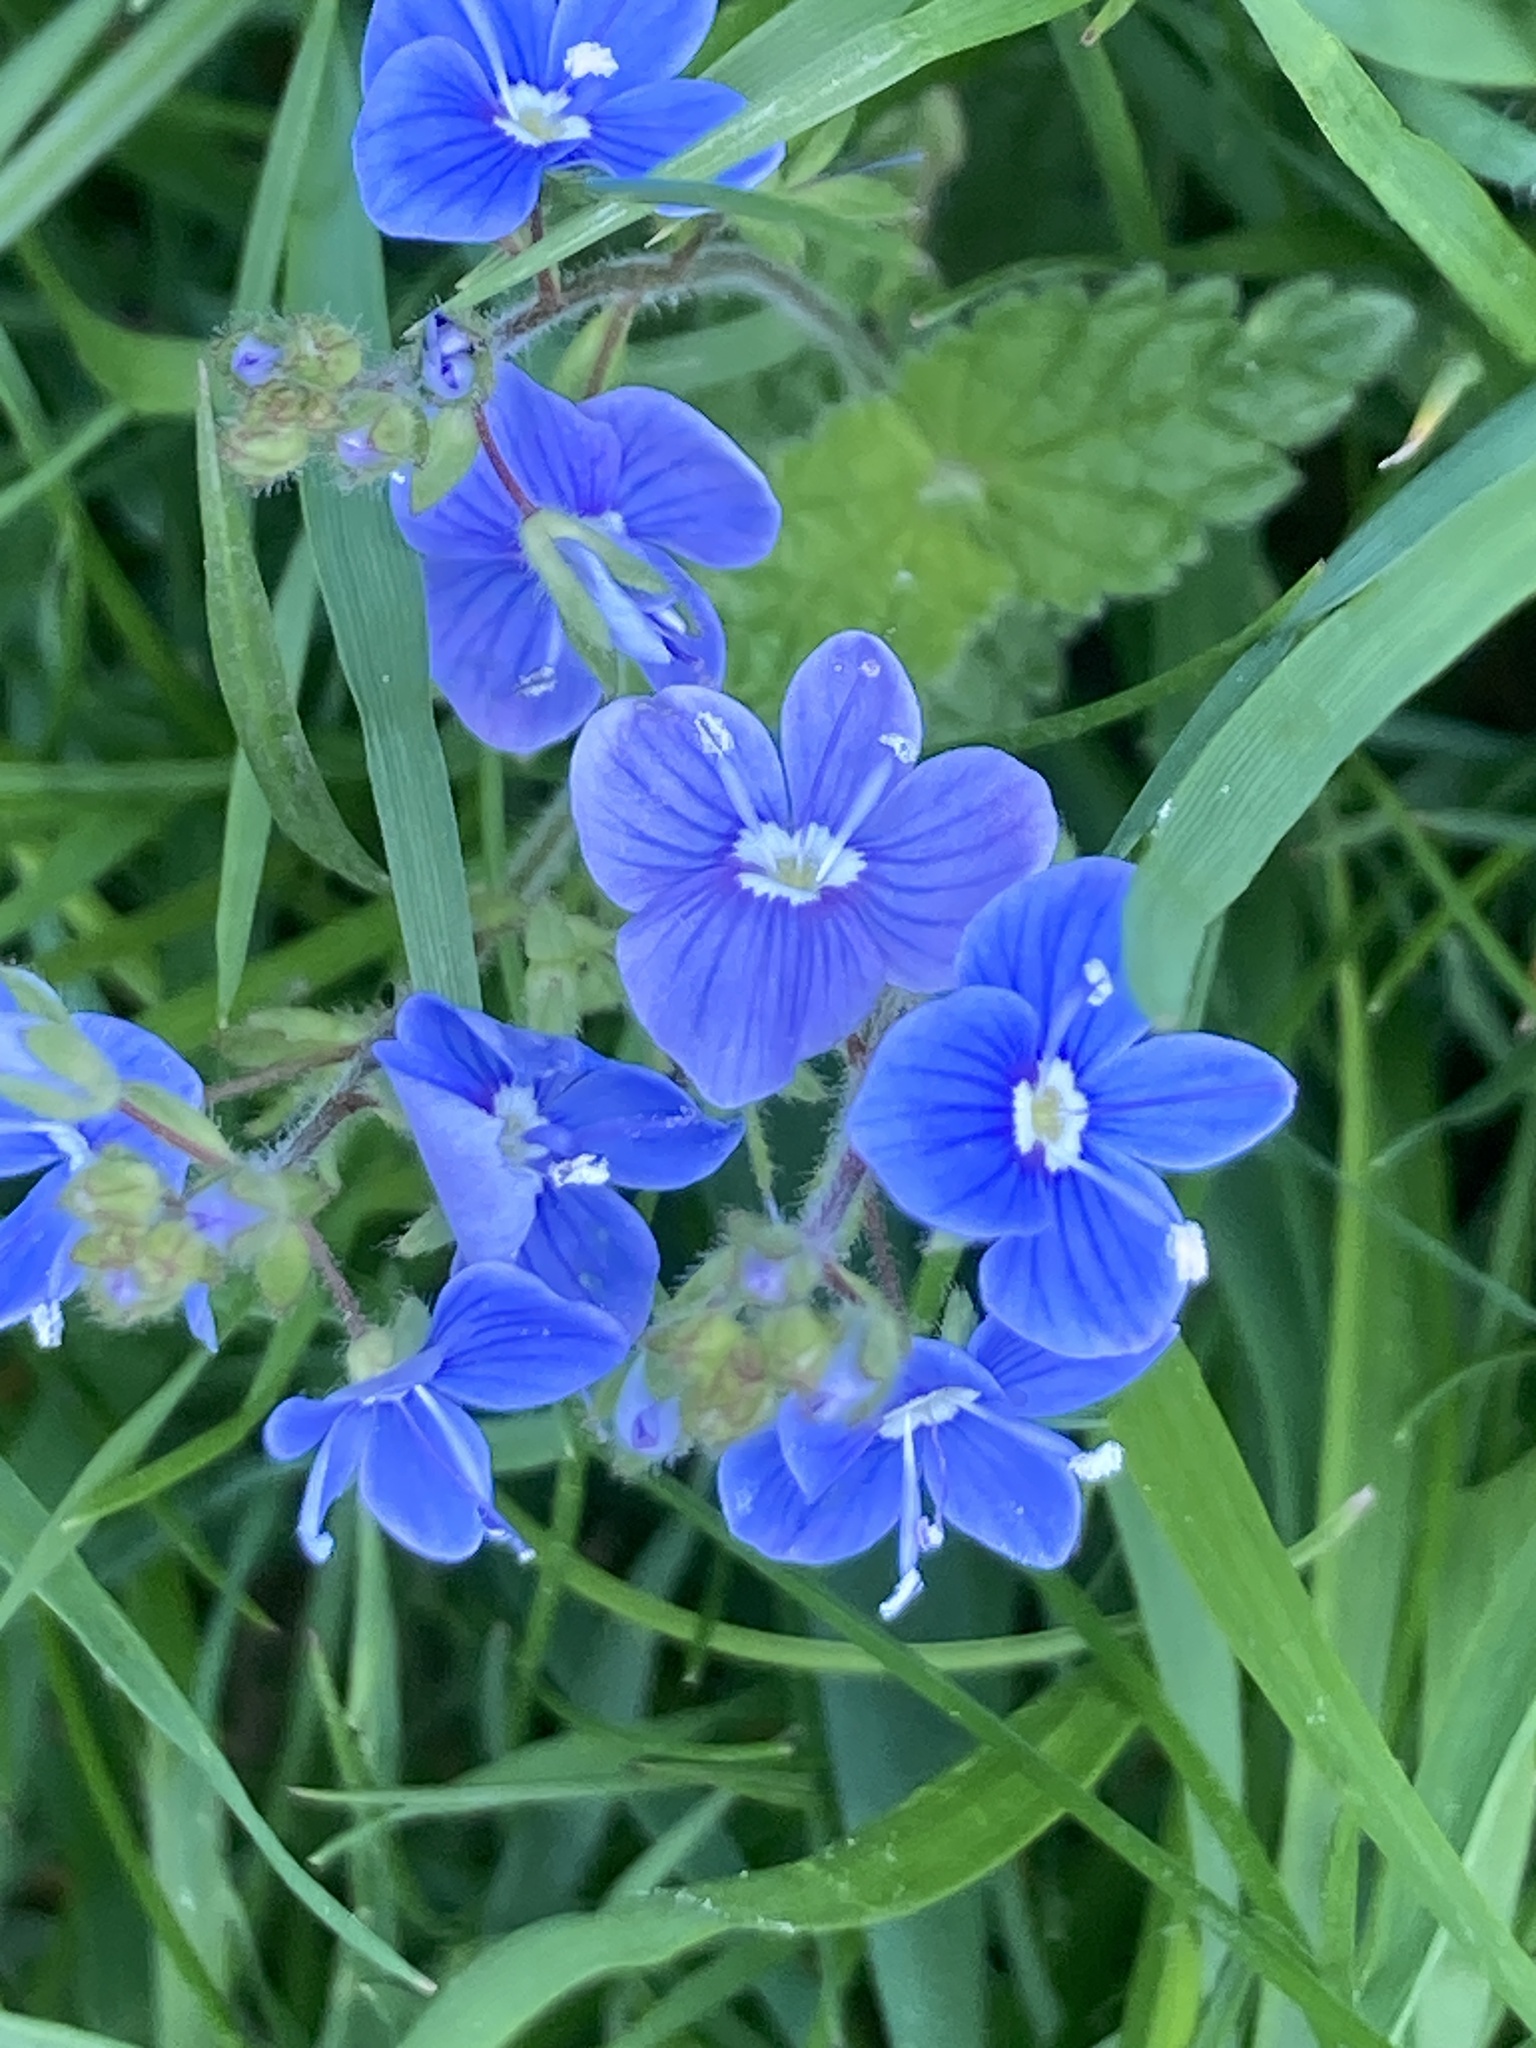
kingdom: Plantae
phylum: Tracheophyta
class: Magnoliopsida
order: Lamiales
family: Plantaginaceae
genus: Veronica
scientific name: Veronica chamaedrys
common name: Germander speedwell
